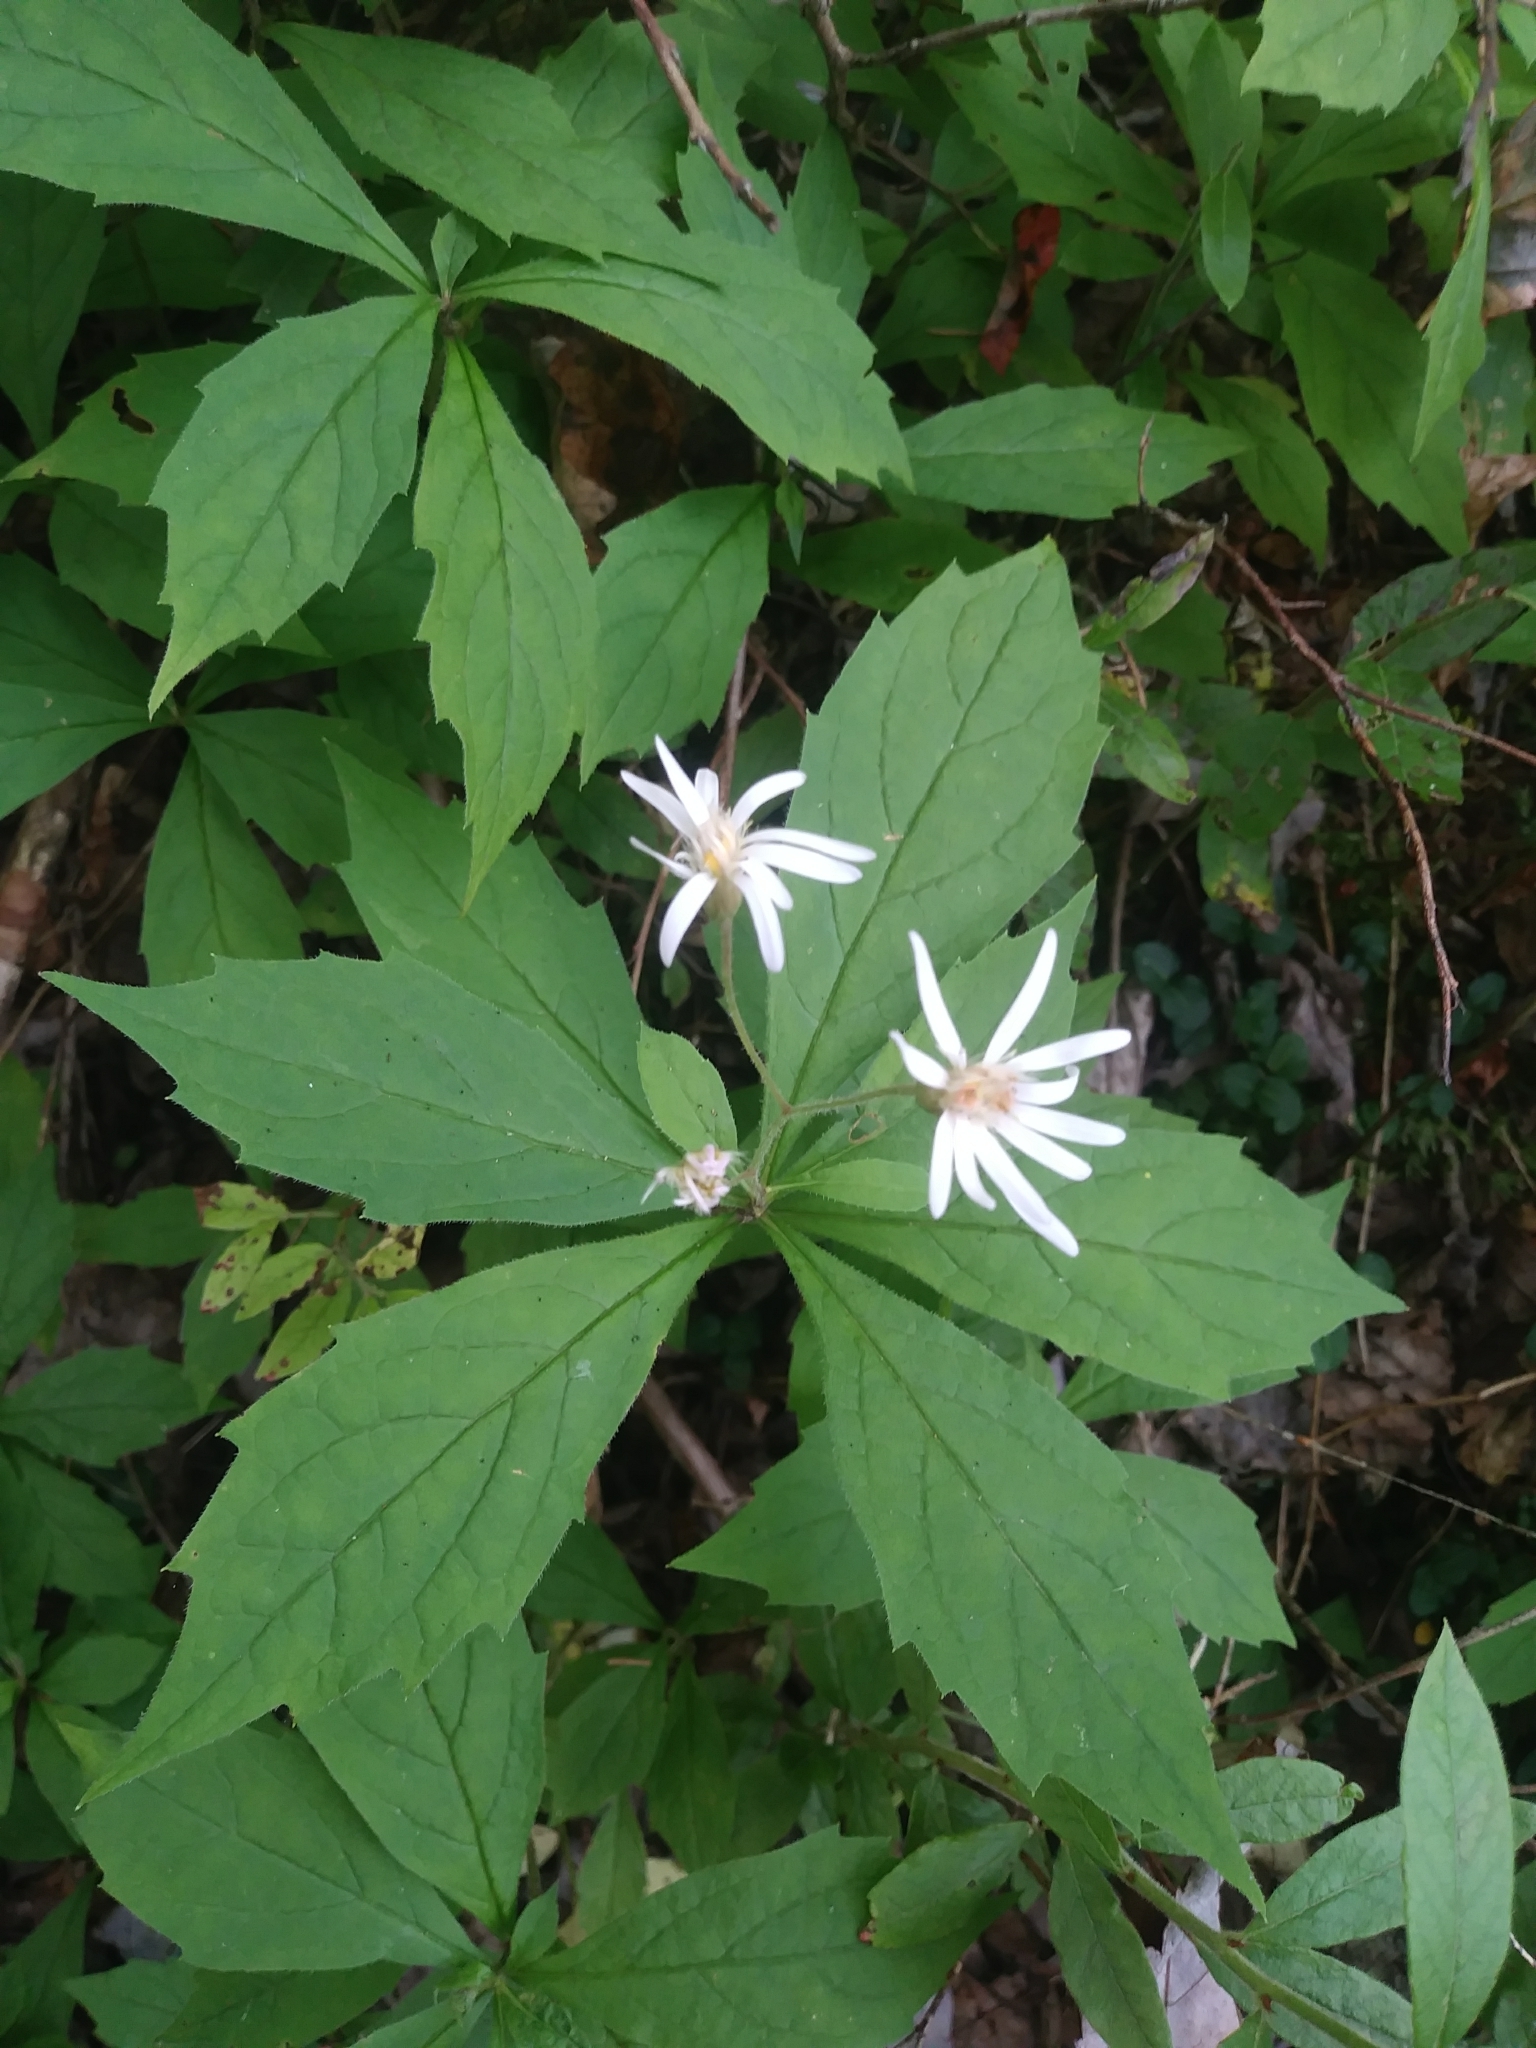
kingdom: Plantae
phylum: Tracheophyta
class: Magnoliopsida
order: Asterales
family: Asteraceae
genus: Oclemena
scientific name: Oclemena acuminata
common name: Mountain aster
